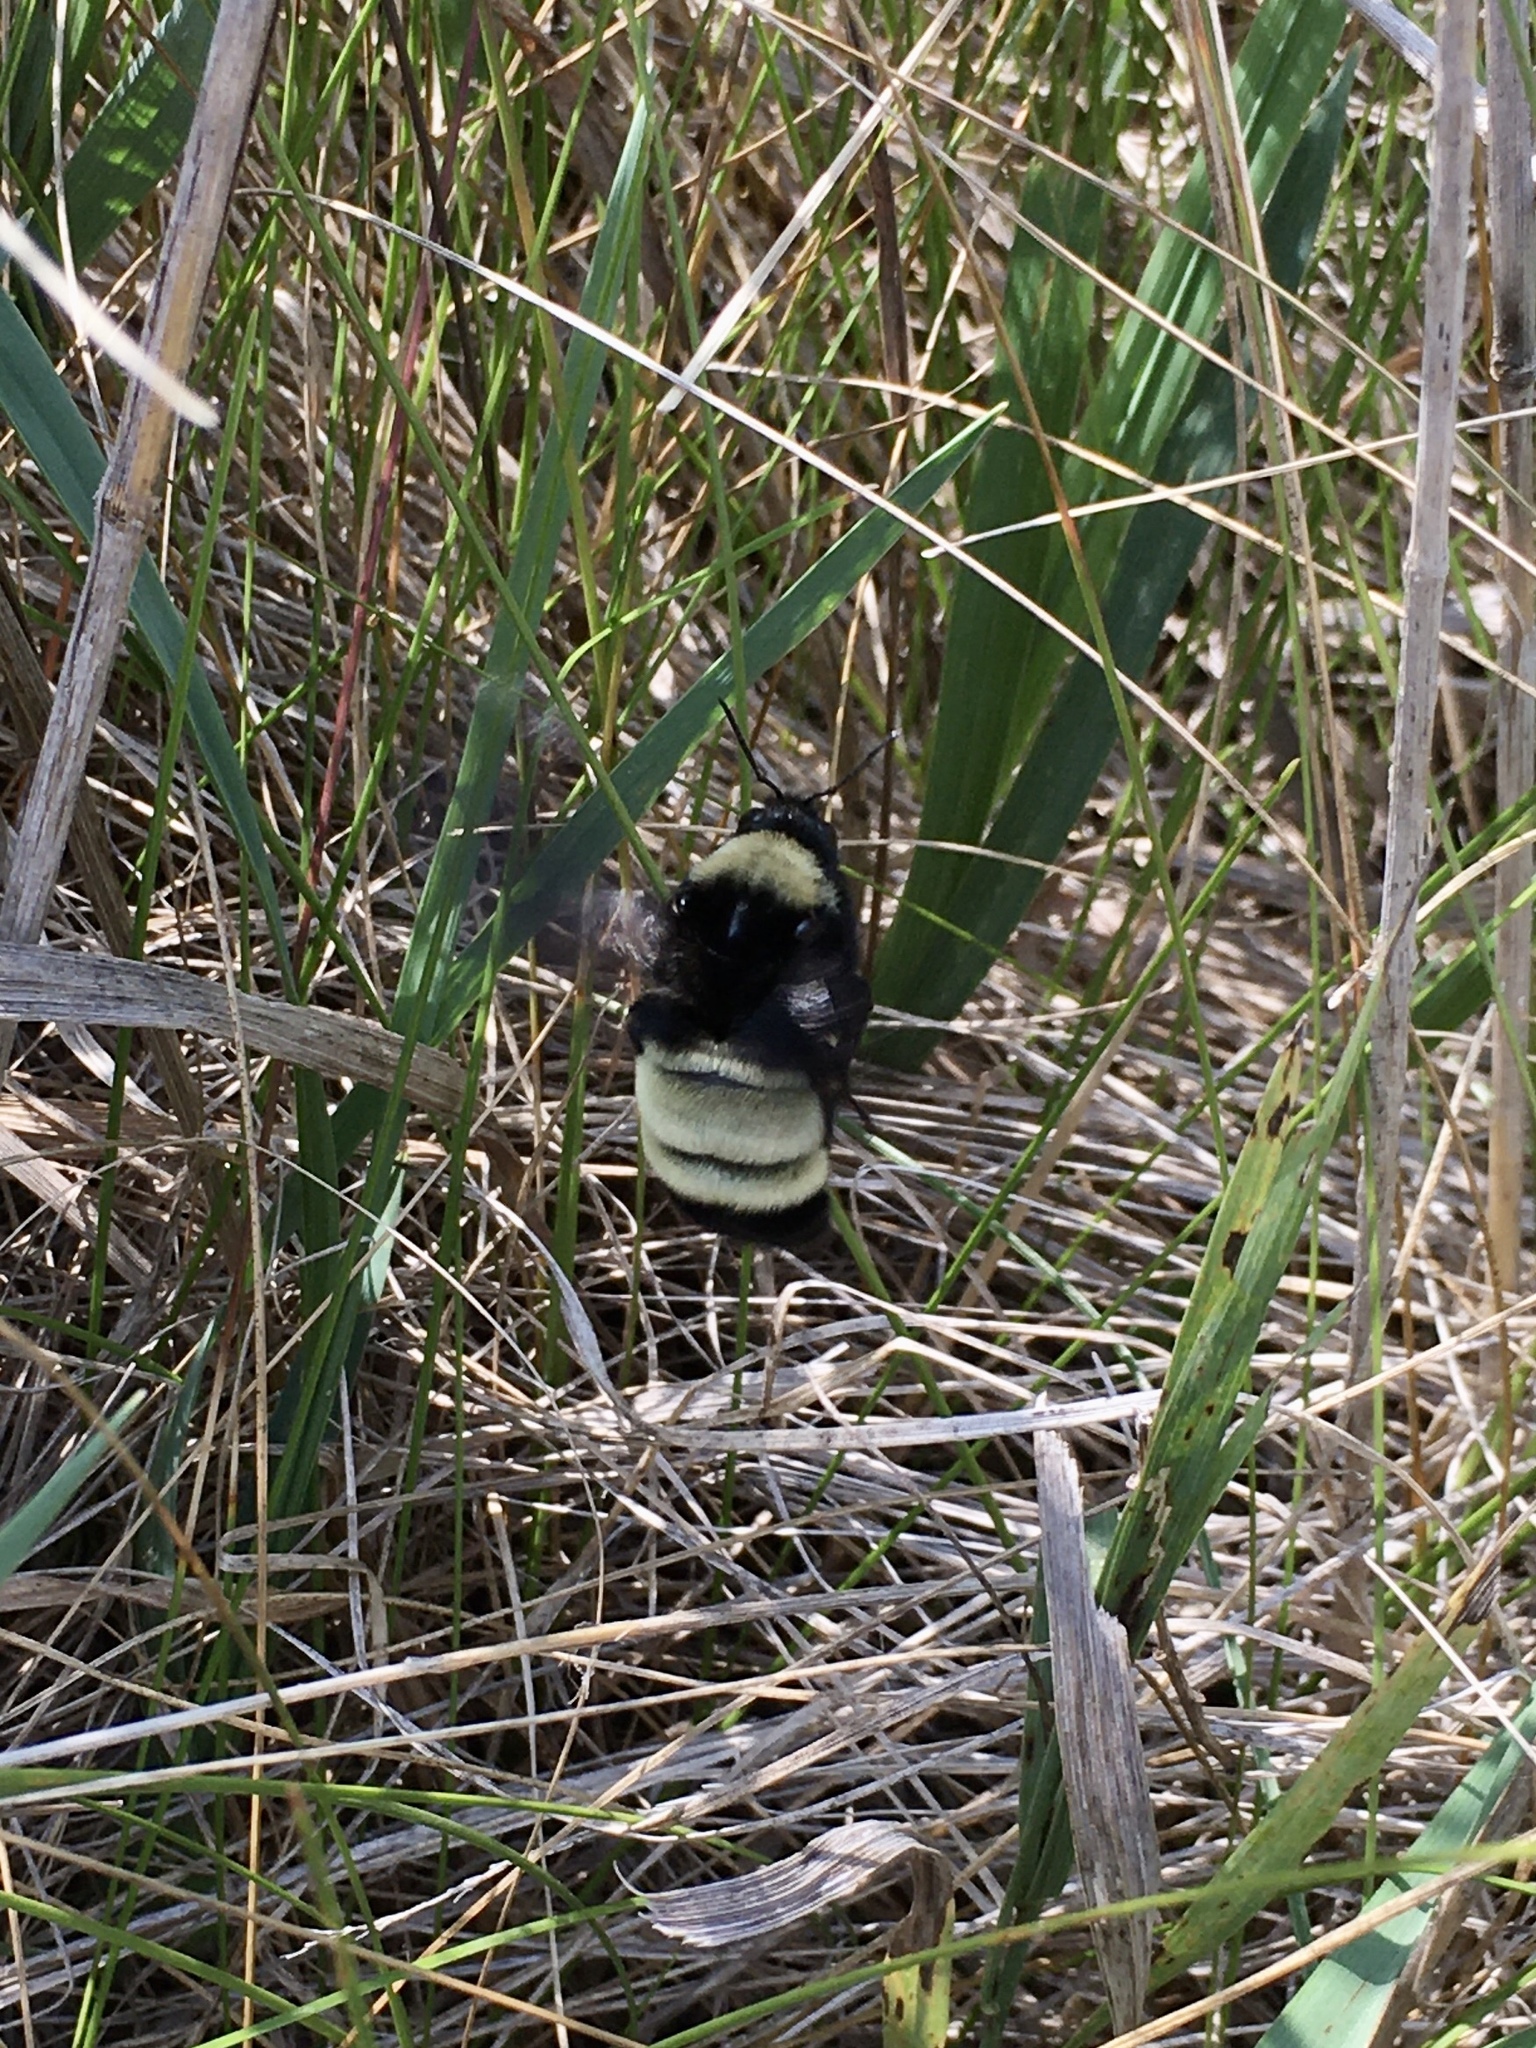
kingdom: Animalia
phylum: Arthropoda
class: Insecta
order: Hymenoptera
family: Apidae
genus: Bombus
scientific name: Bombus pensylvanicus
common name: Bumble bee
